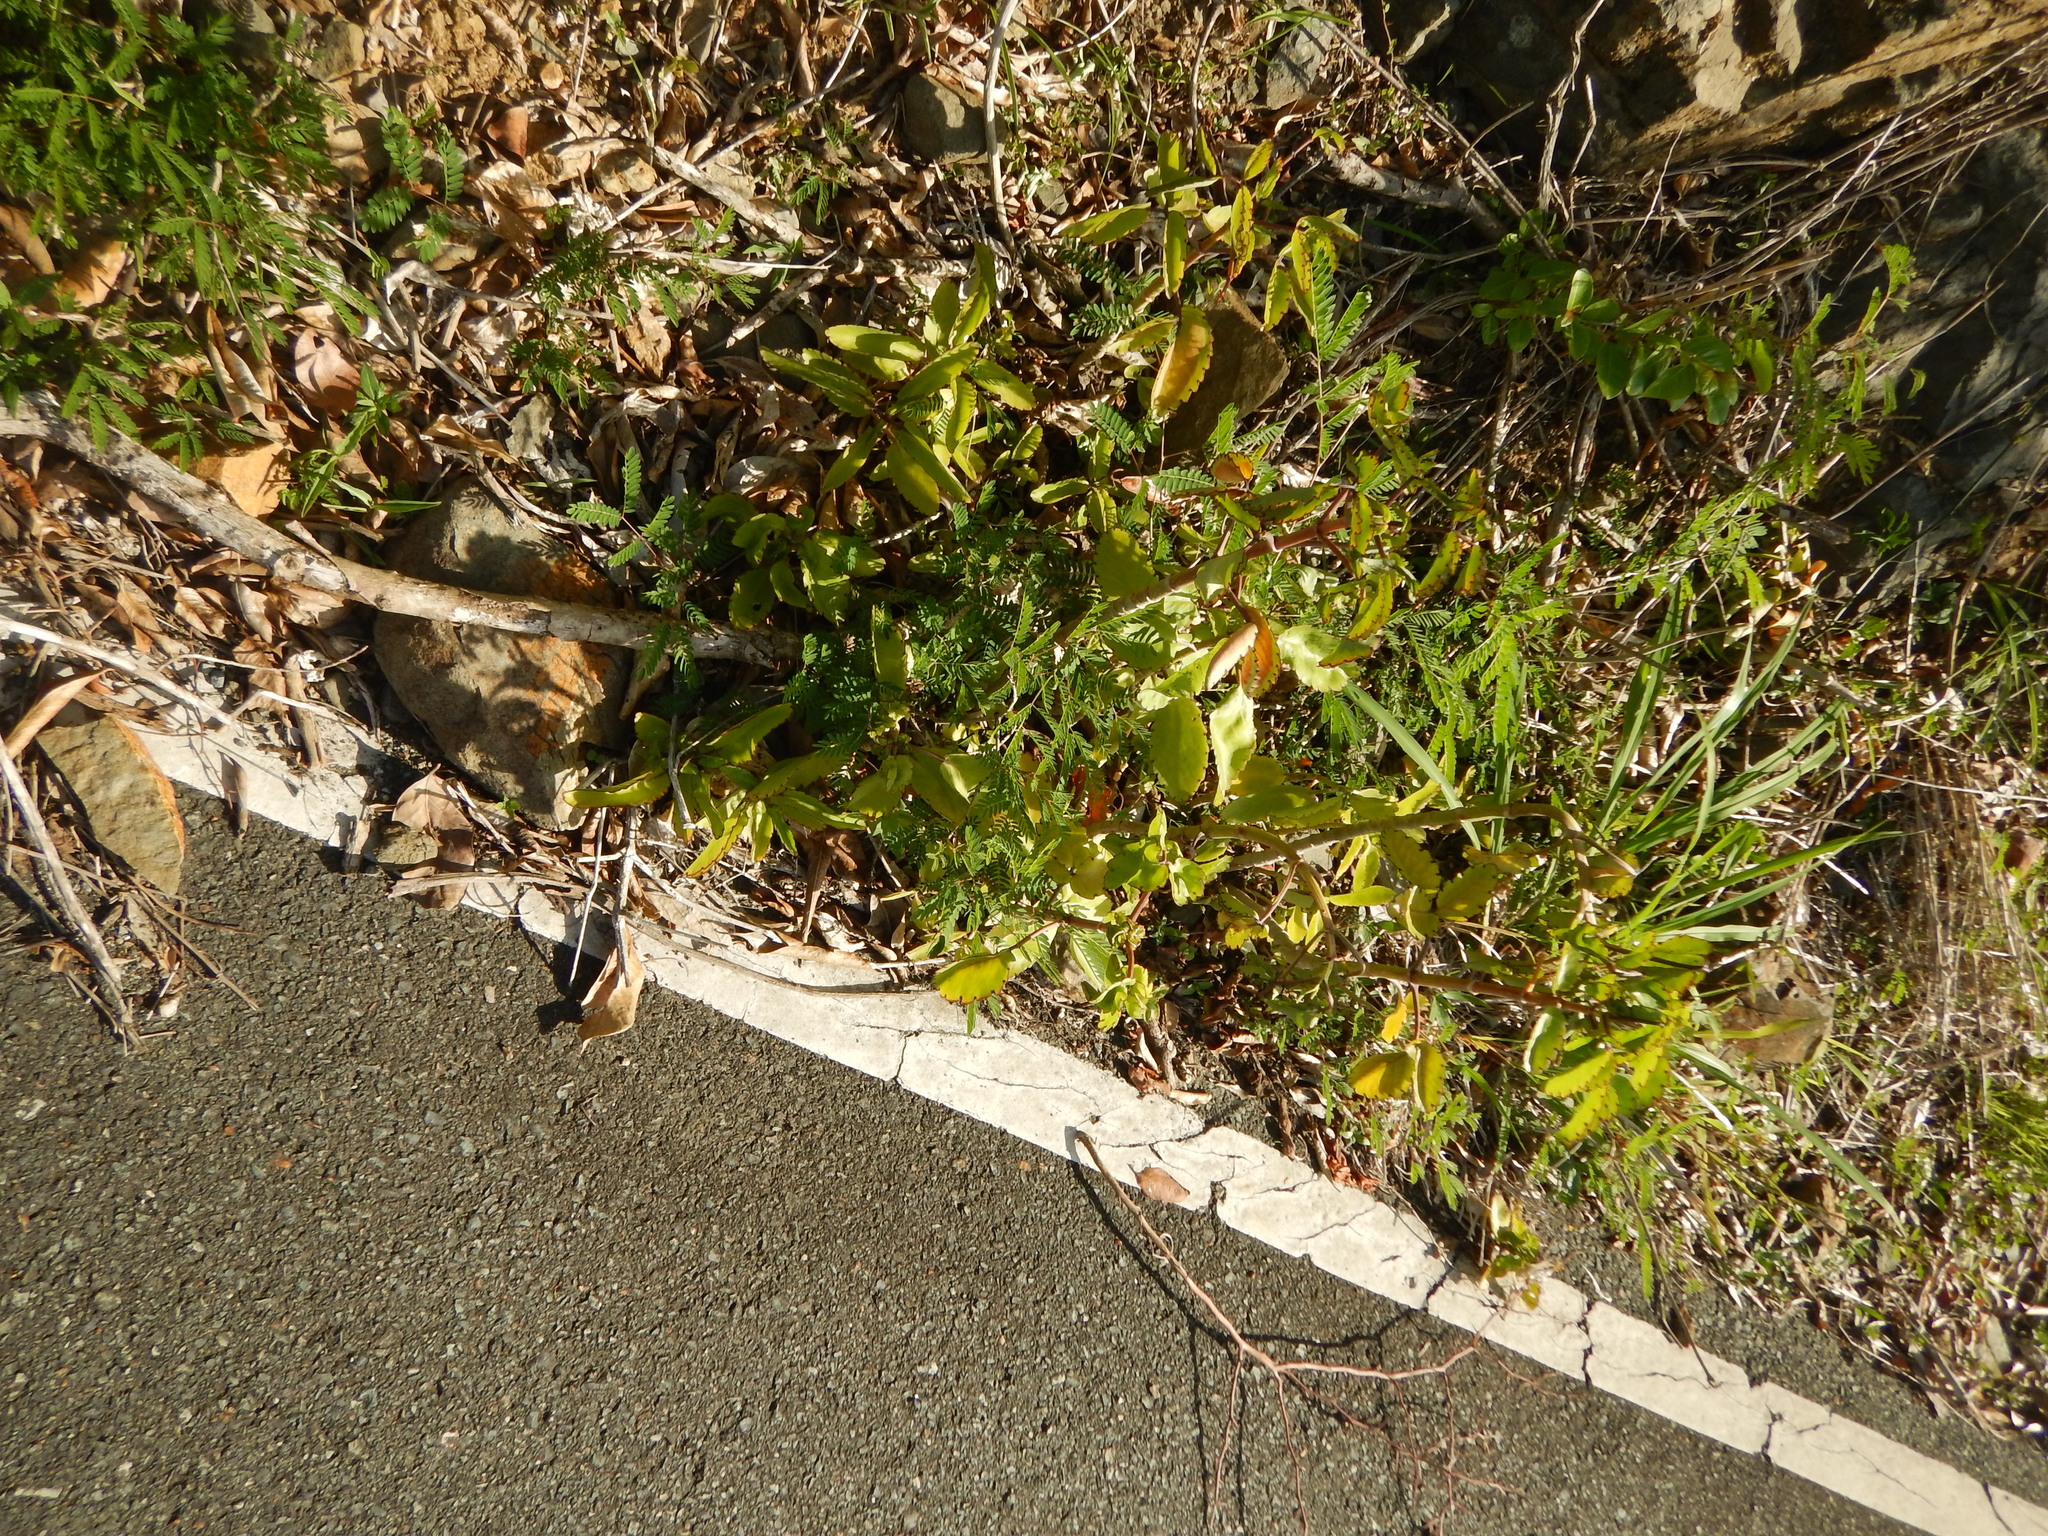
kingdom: Plantae
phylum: Tracheophyta
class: Magnoliopsida
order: Saxifragales
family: Crassulaceae
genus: Kalanchoe
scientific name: Kalanchoe pinnata
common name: Cathedral bells
